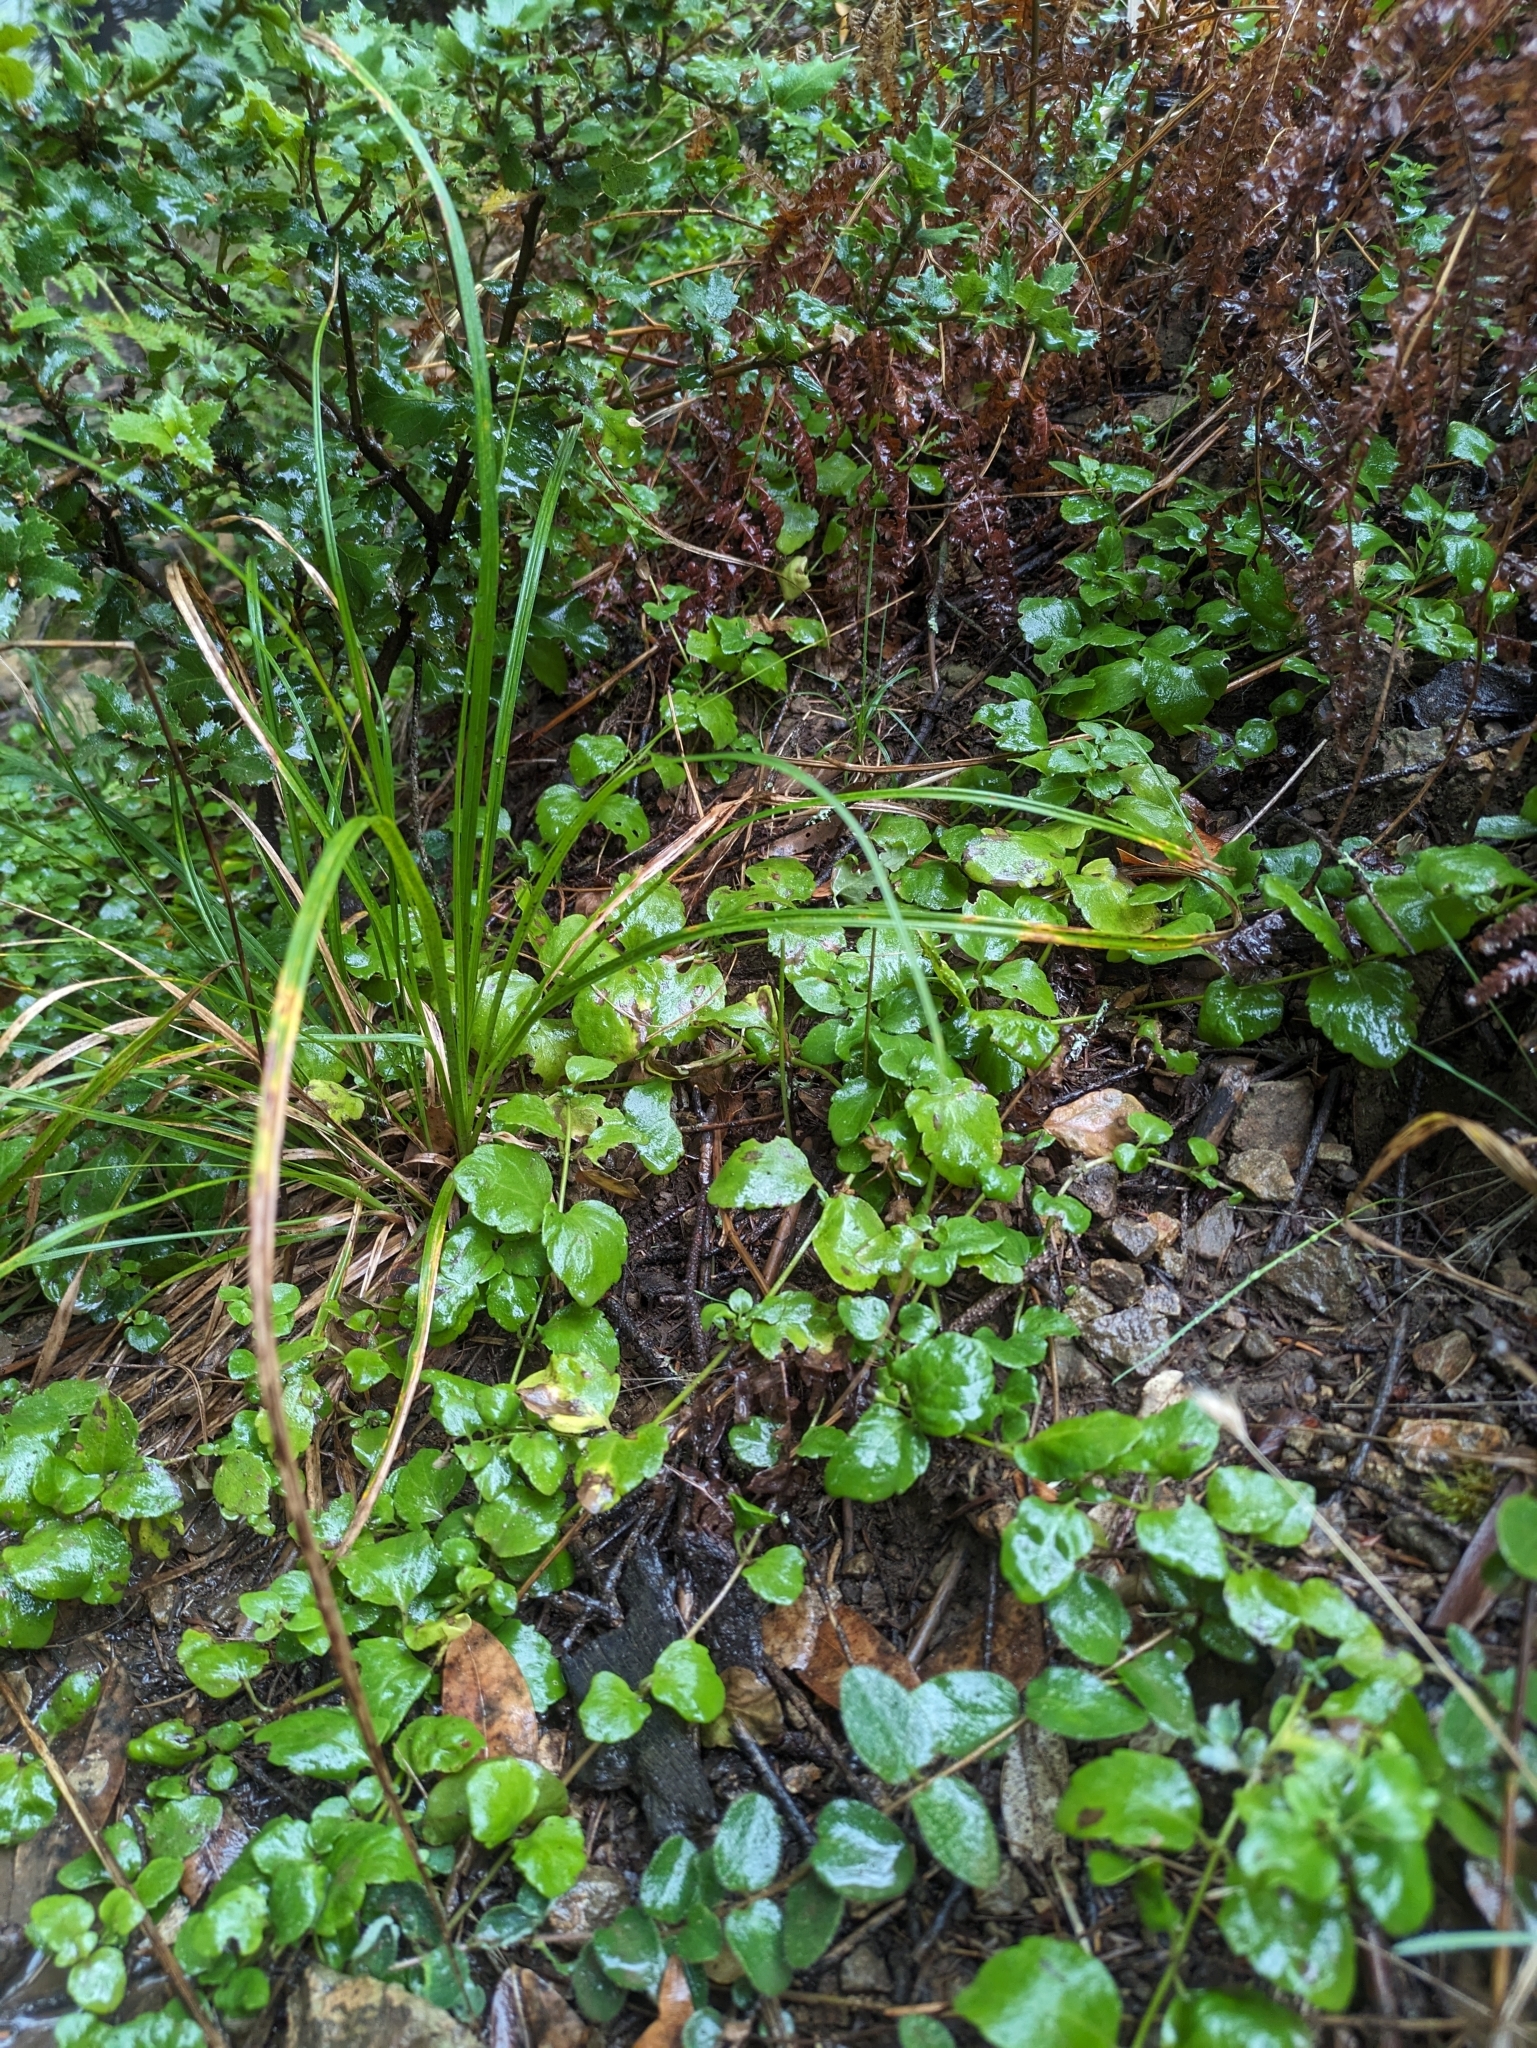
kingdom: Plantae
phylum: Tracheophyta
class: Magnoliopsida
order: Lamiales
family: Lamiaceae
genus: Micromeria
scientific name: Micromeria douglasii
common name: Yerba buena
